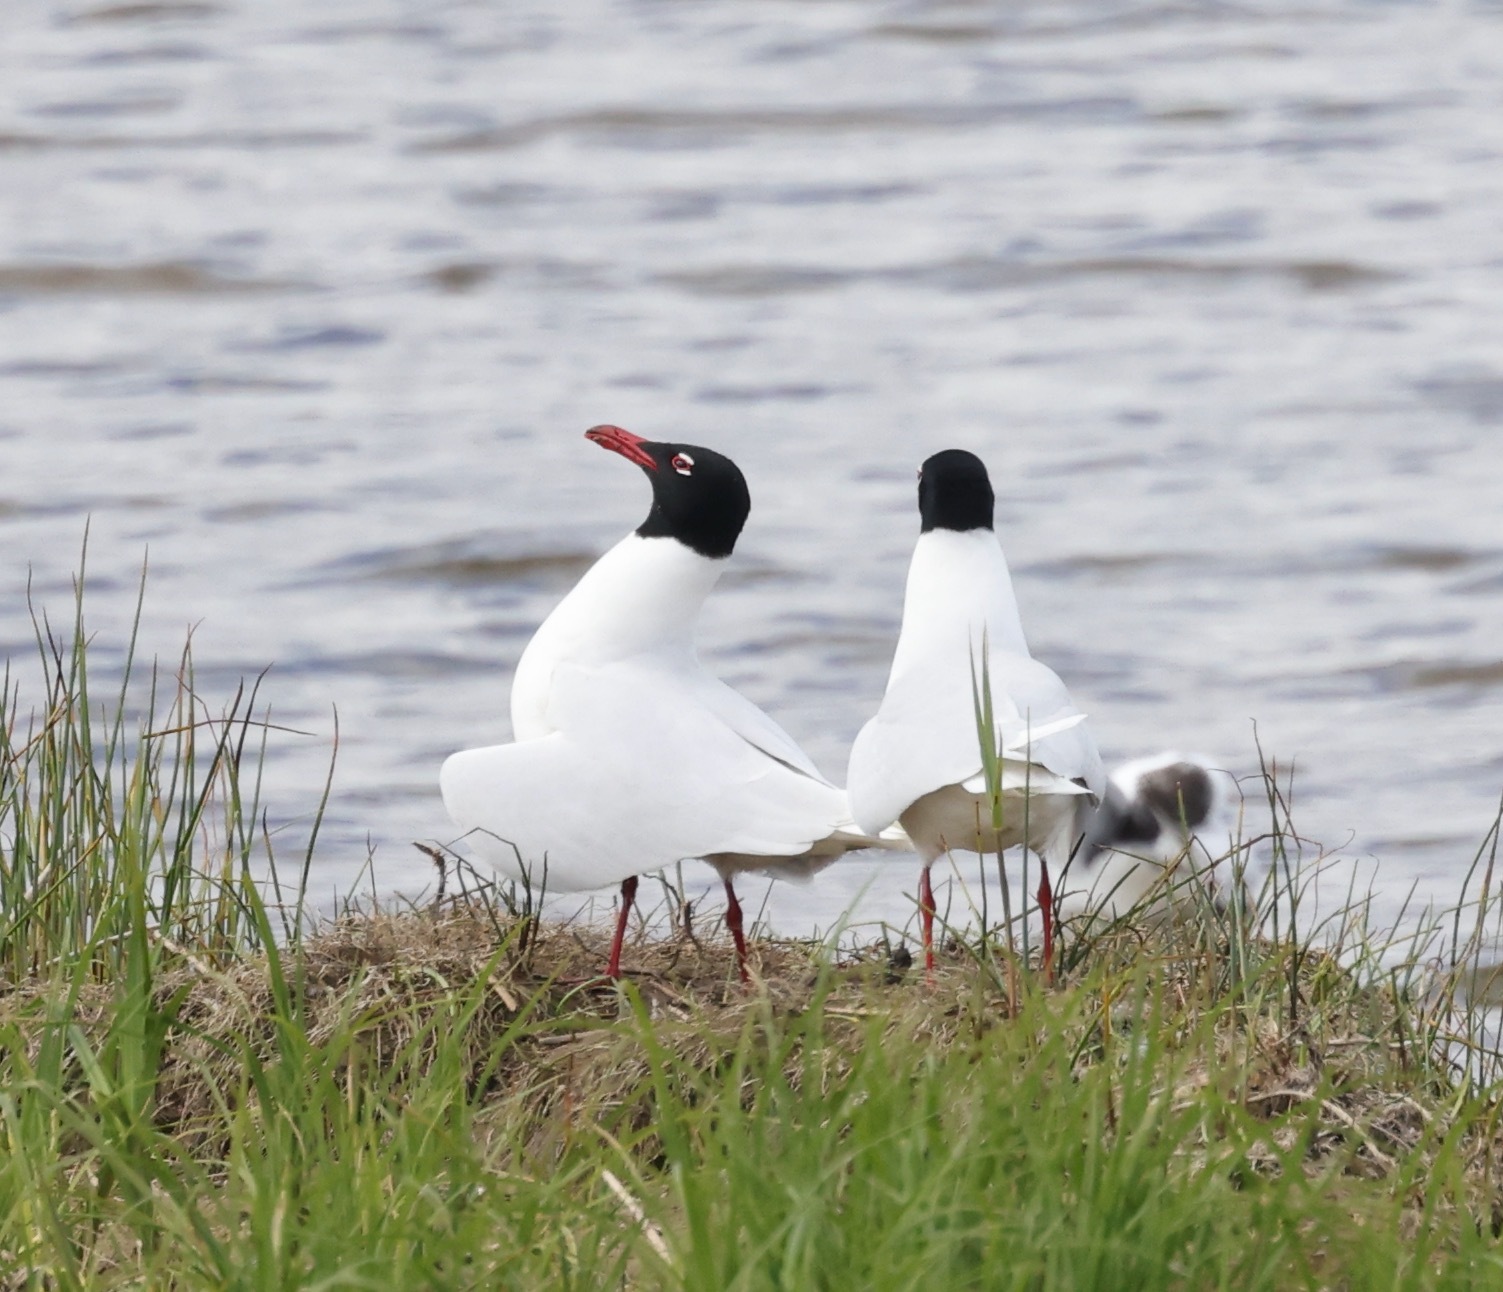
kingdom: Animalia
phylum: Chordata
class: Aves
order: Charadriiformes
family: Laridae
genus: Ichthyaetus
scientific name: Ichthyaetus melanocephalus
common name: Mediterranean gull
